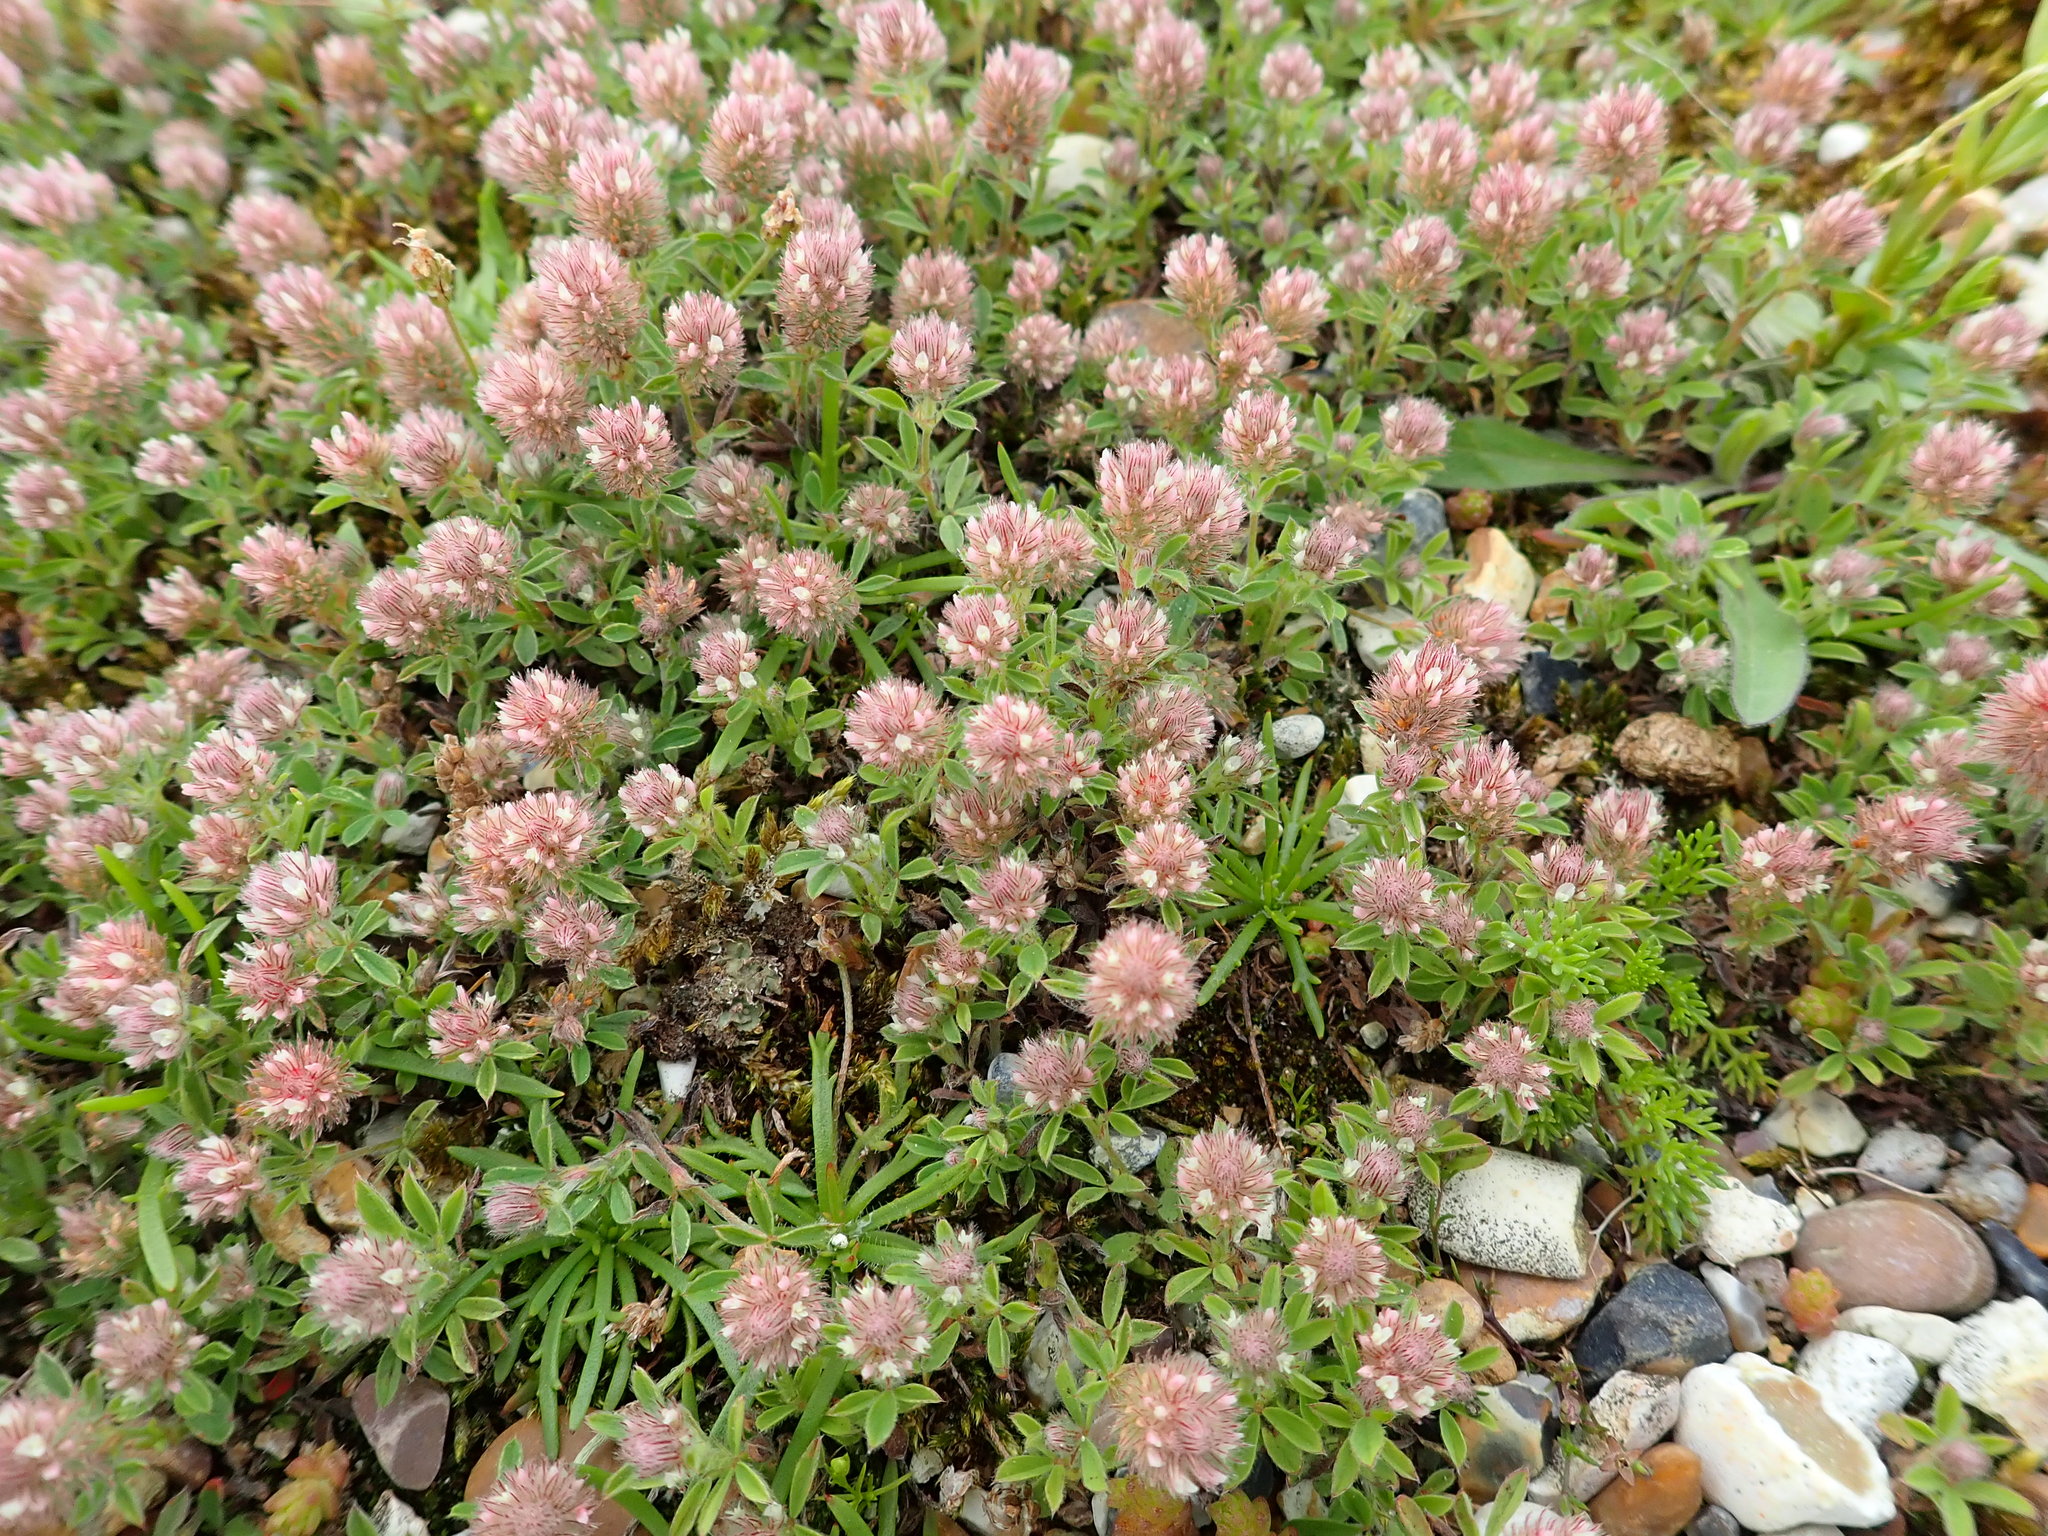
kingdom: Plantae
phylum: Tracheophyta
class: Magnoliopsida
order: Fabales
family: Fabaceae
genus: Trifolium
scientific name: Trifolium arvense
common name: Hare's-foot clover
